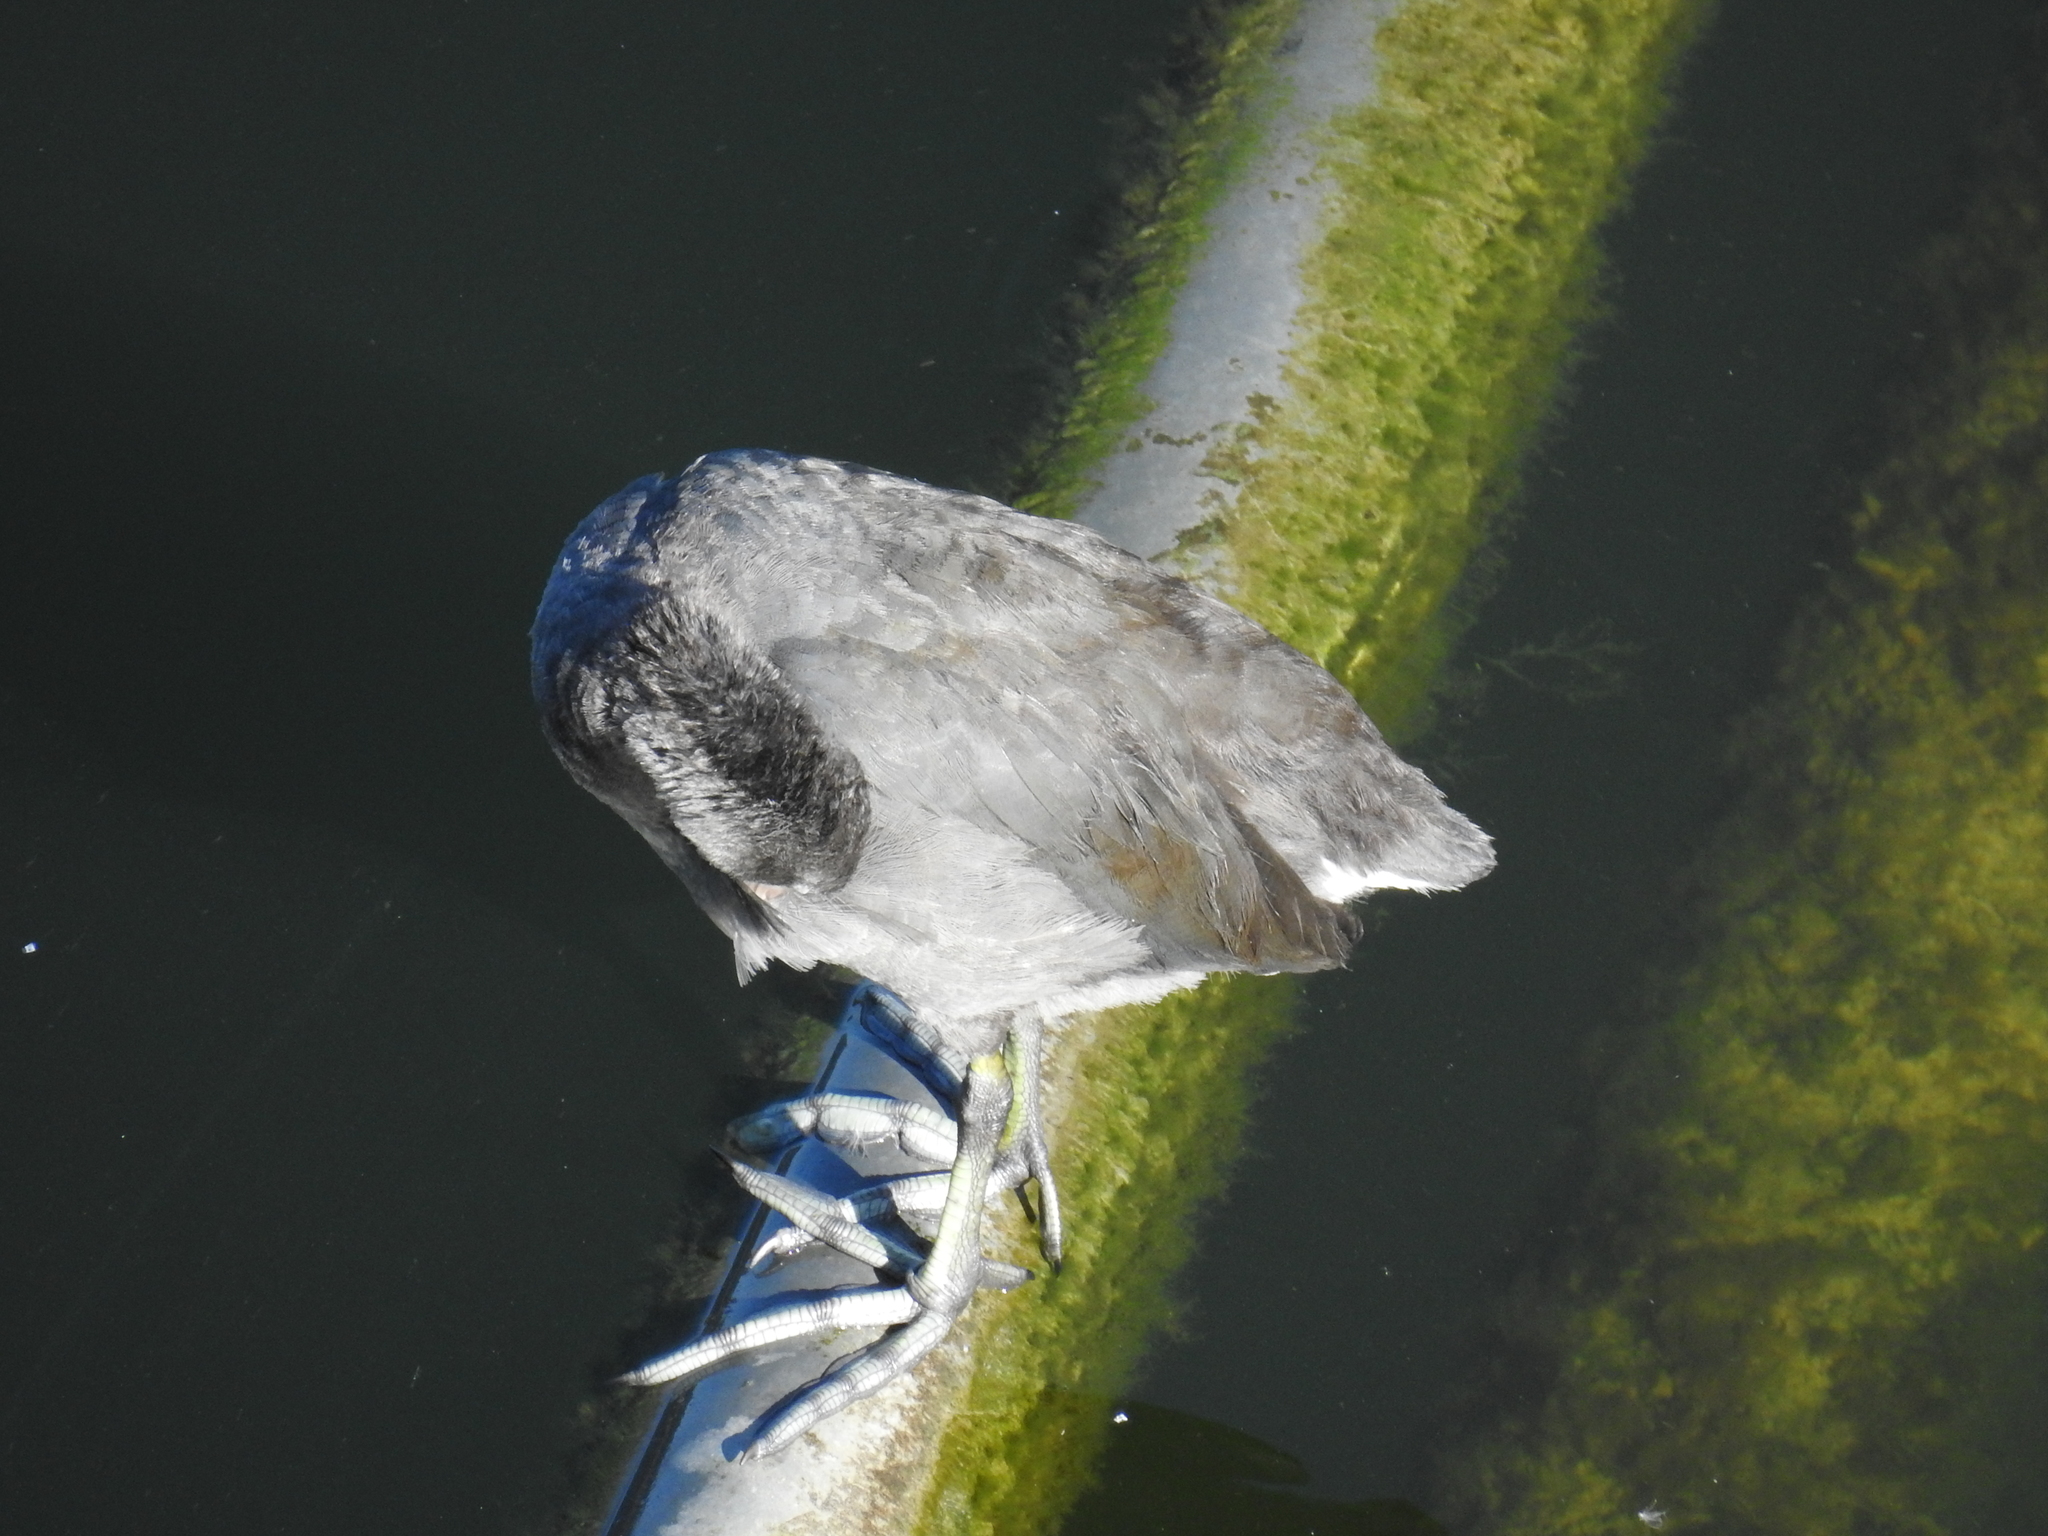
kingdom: Animalia
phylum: Chordata
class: Aves
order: Gruiformes
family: Rallidae
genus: Fulica
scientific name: Fulica americana
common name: American coot
